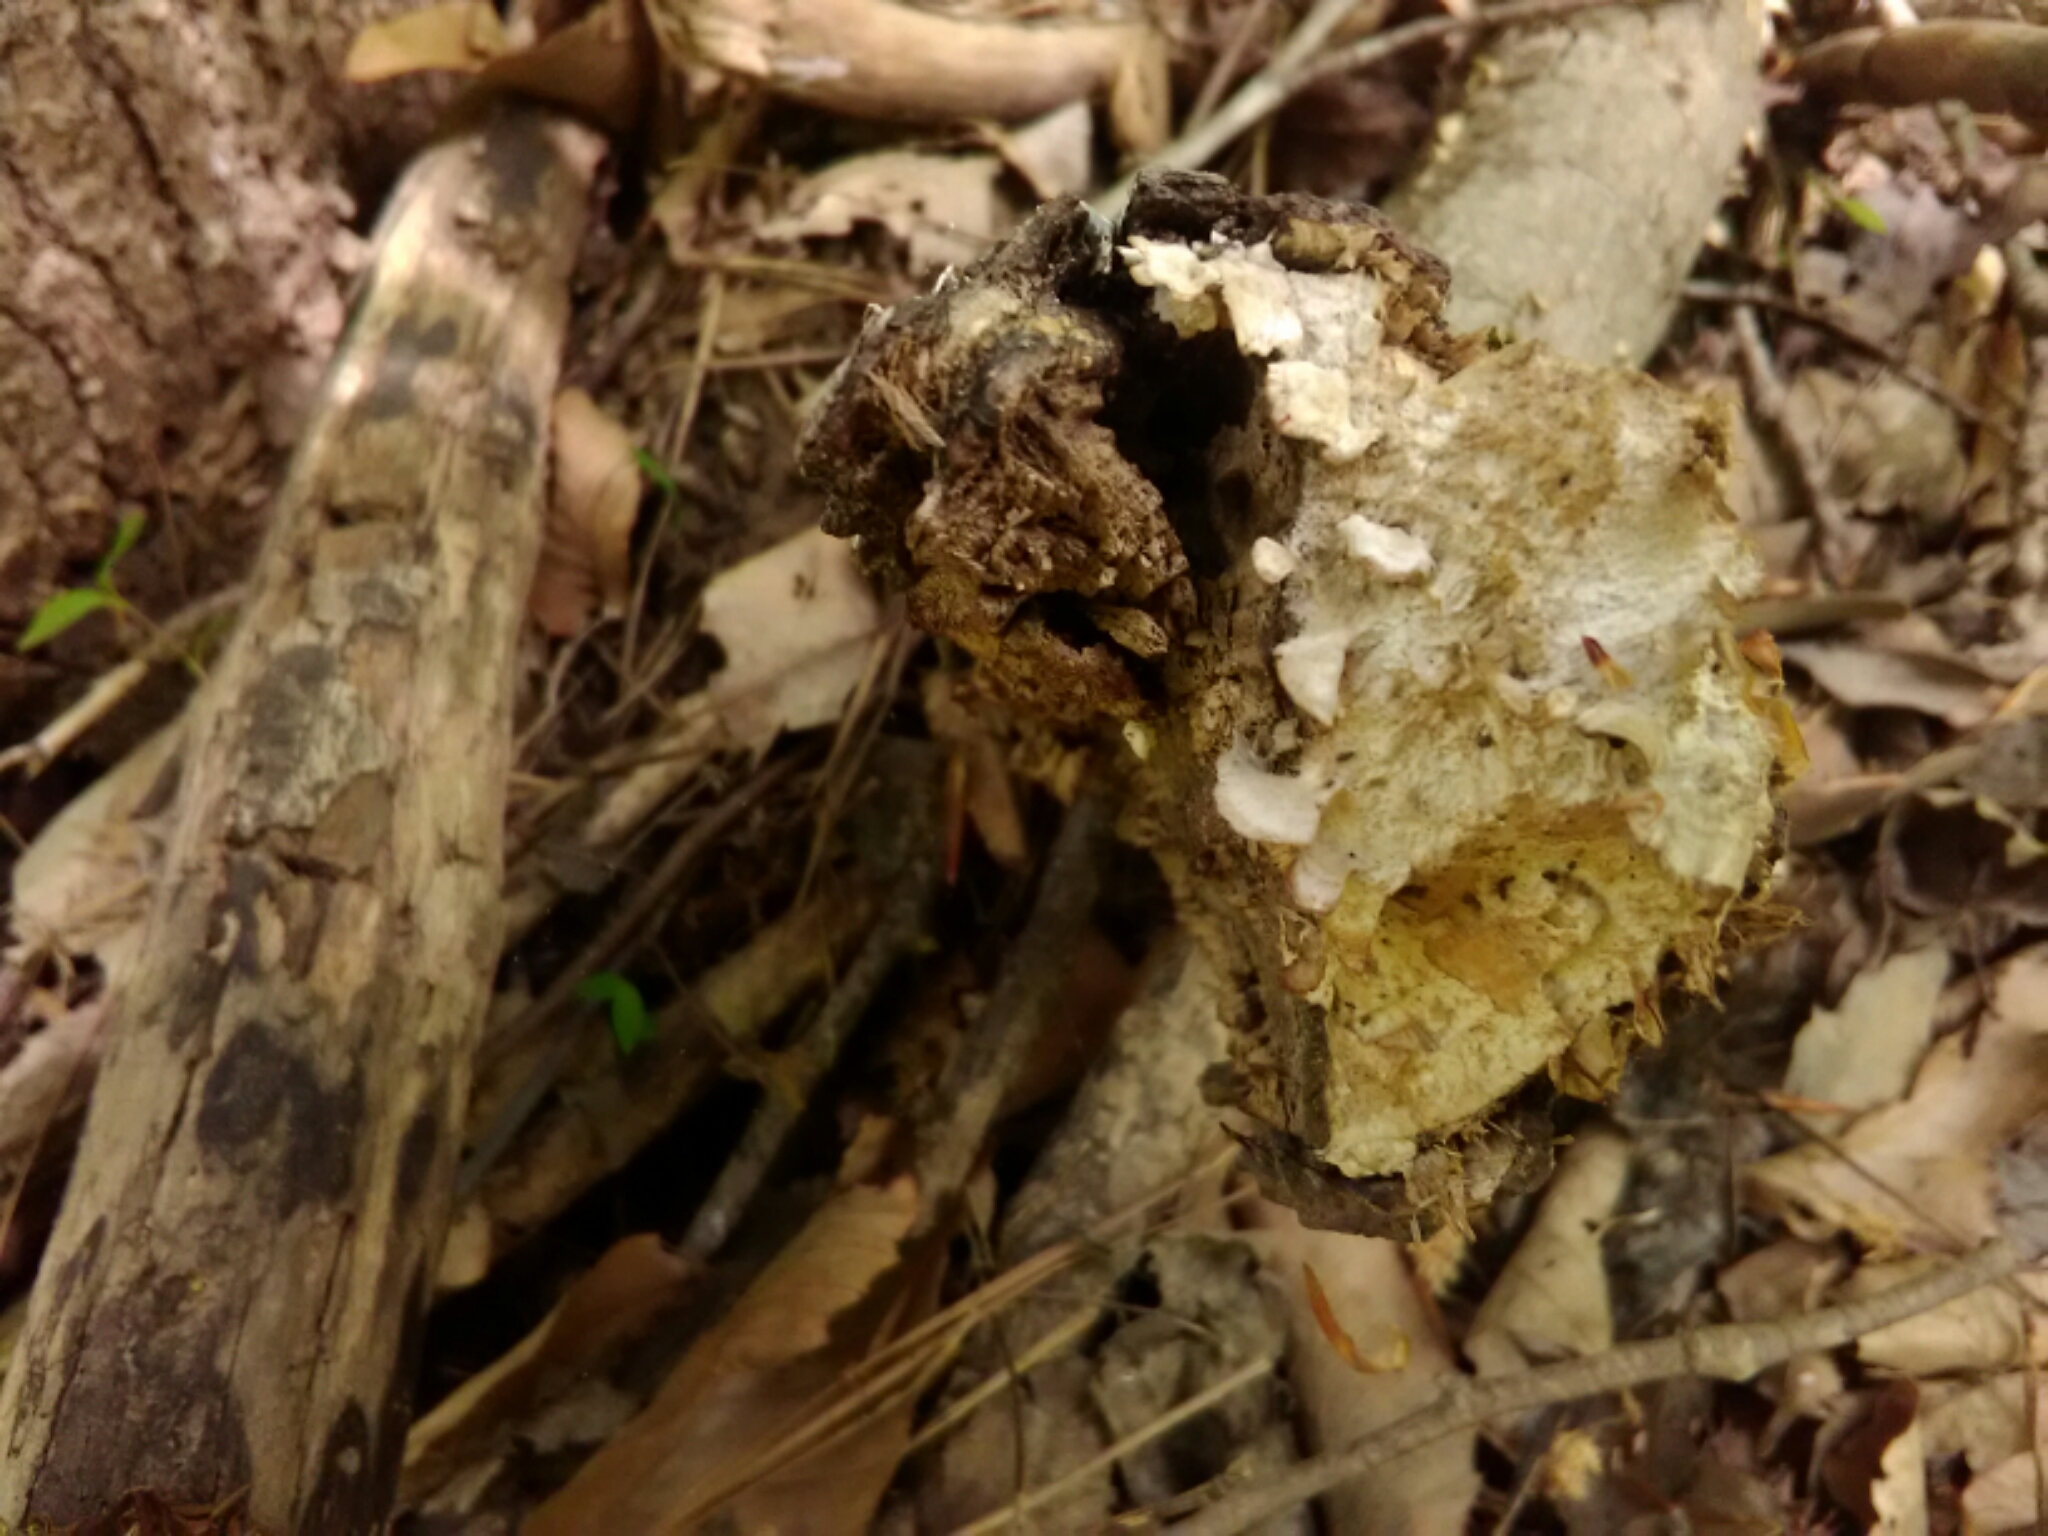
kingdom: Fungi
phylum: Basidiomycota
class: Agaricomycetes
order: Russulales
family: Stereaceae
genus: Stereum
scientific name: Stereum ostrea
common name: False turkeytail
